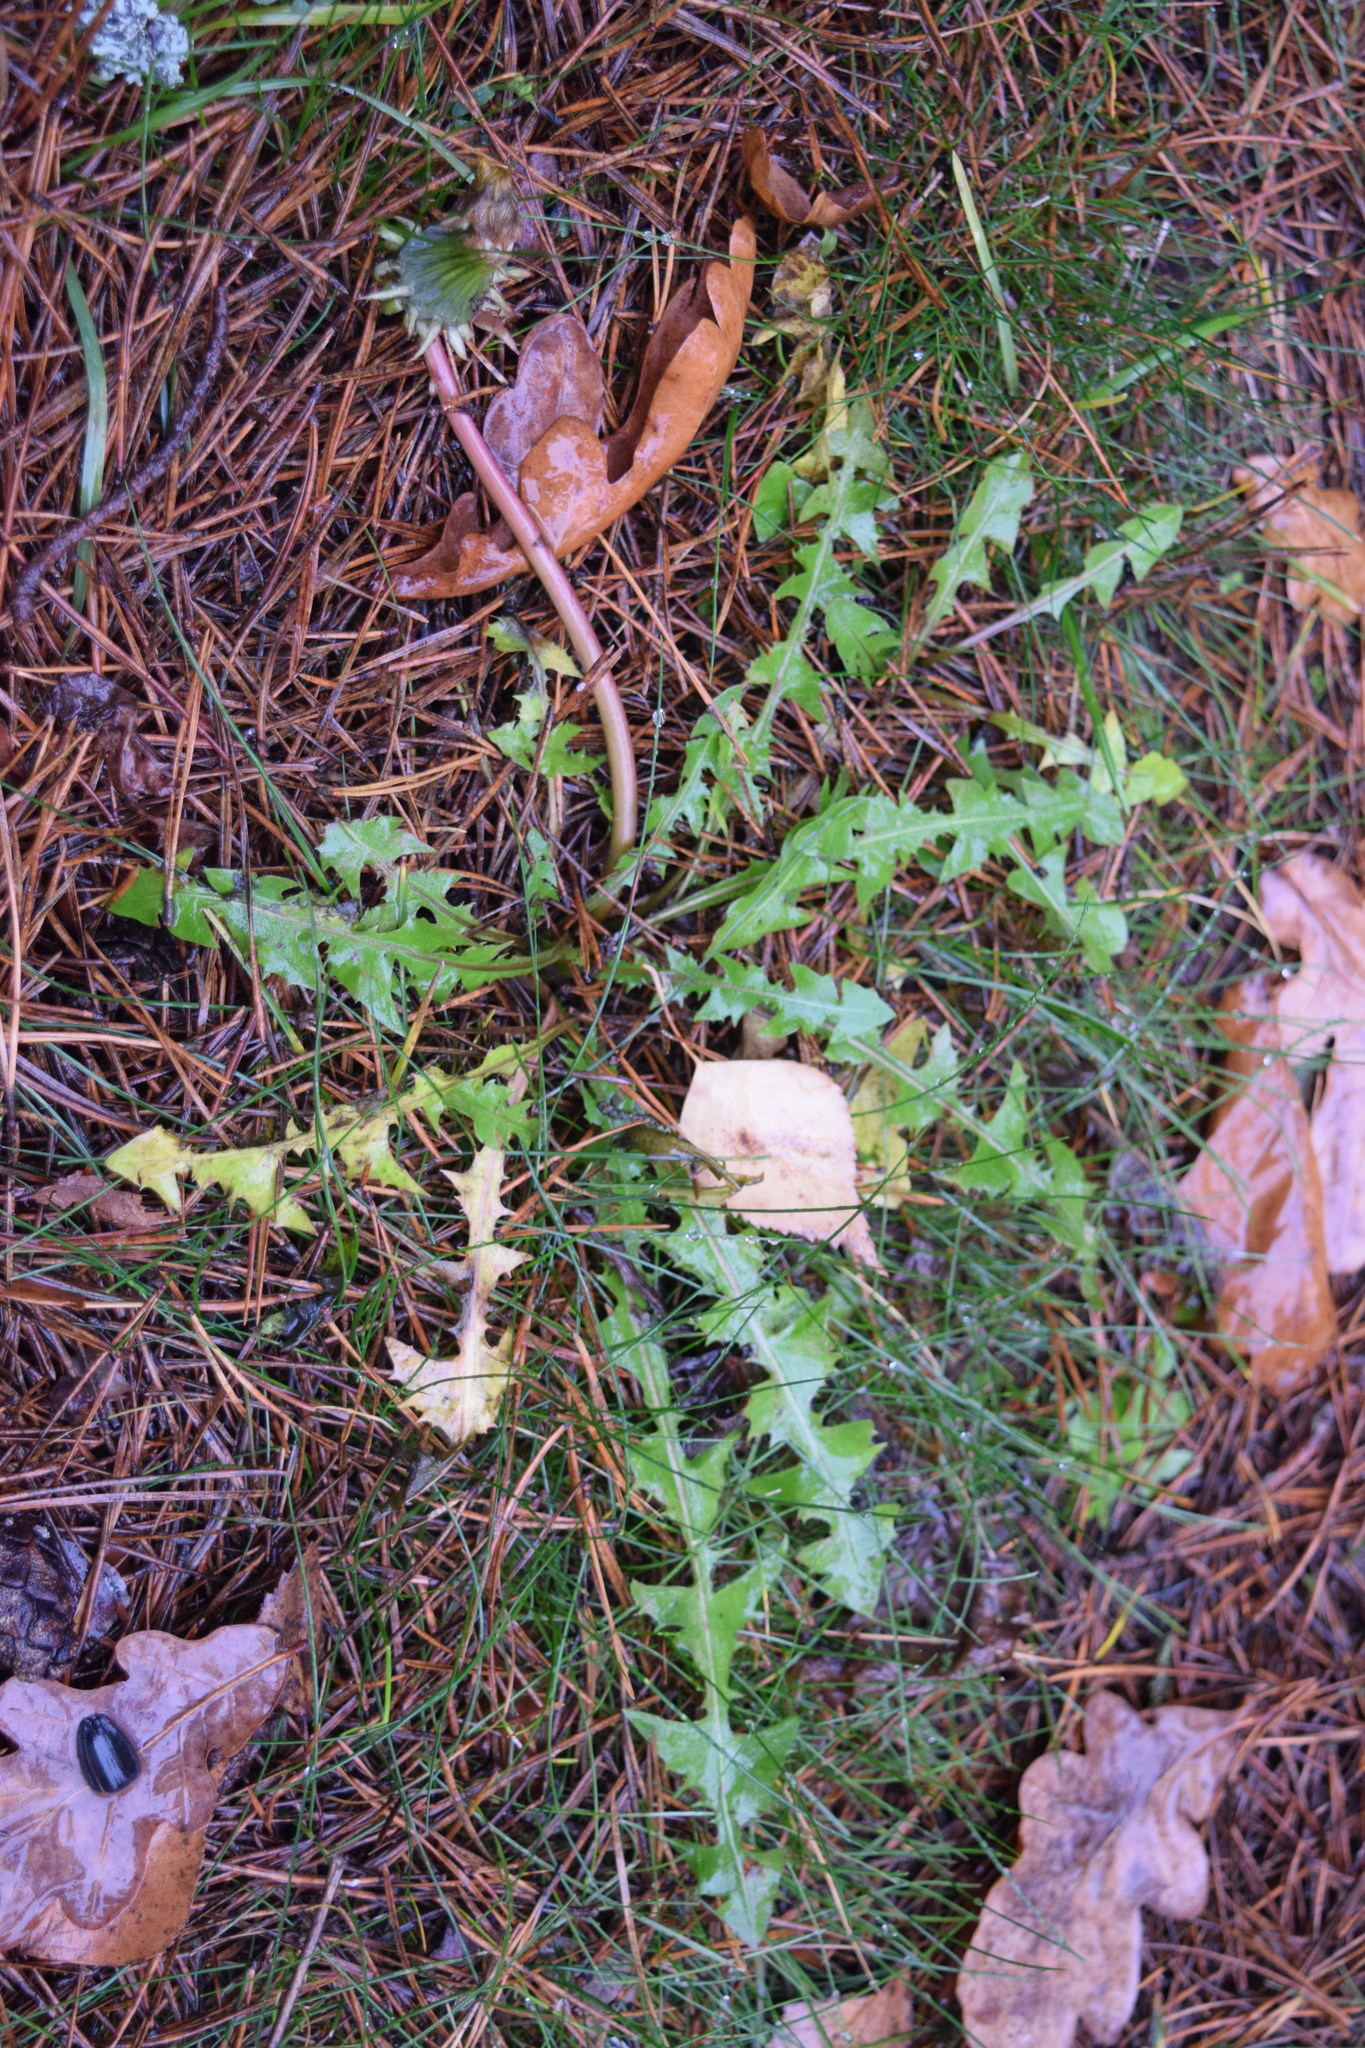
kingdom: Plantae
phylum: Tracheophyta
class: Magnoliopsida
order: Asterales
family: Asteraceae
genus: Taraxacum
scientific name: Taraxacum officinale
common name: Common dandelion
